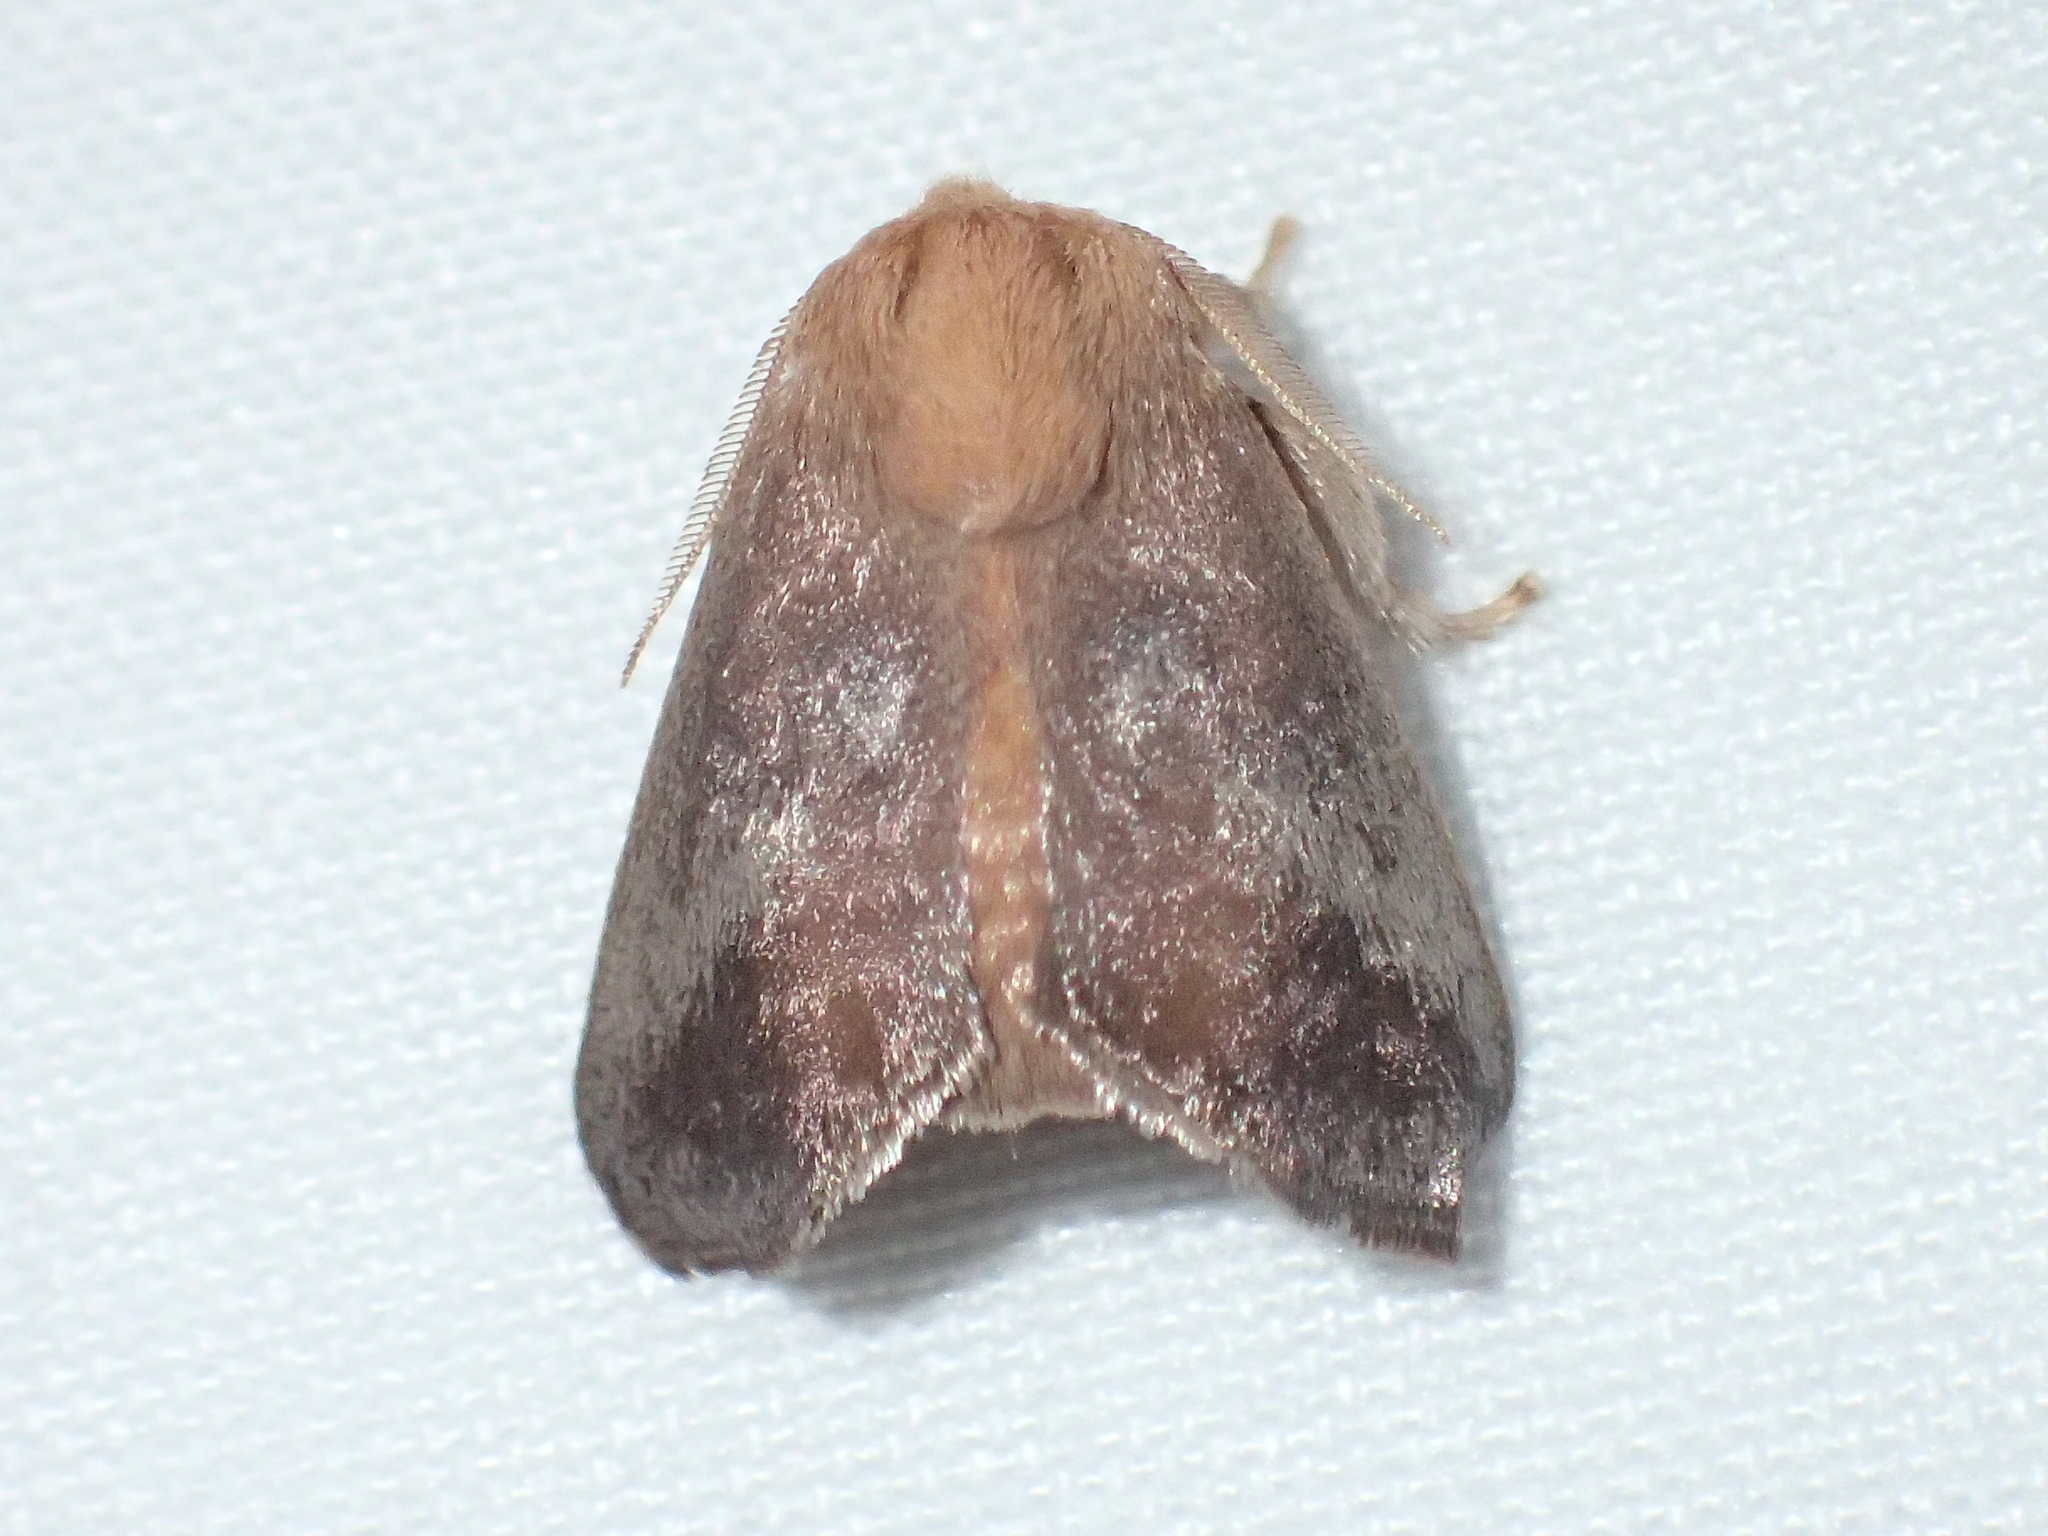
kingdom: Animalia
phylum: Arthropoda
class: Insecta
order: Lepidoptera
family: Limacodidae
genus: Isa
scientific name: Isa textula
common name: Crowned slug moth
